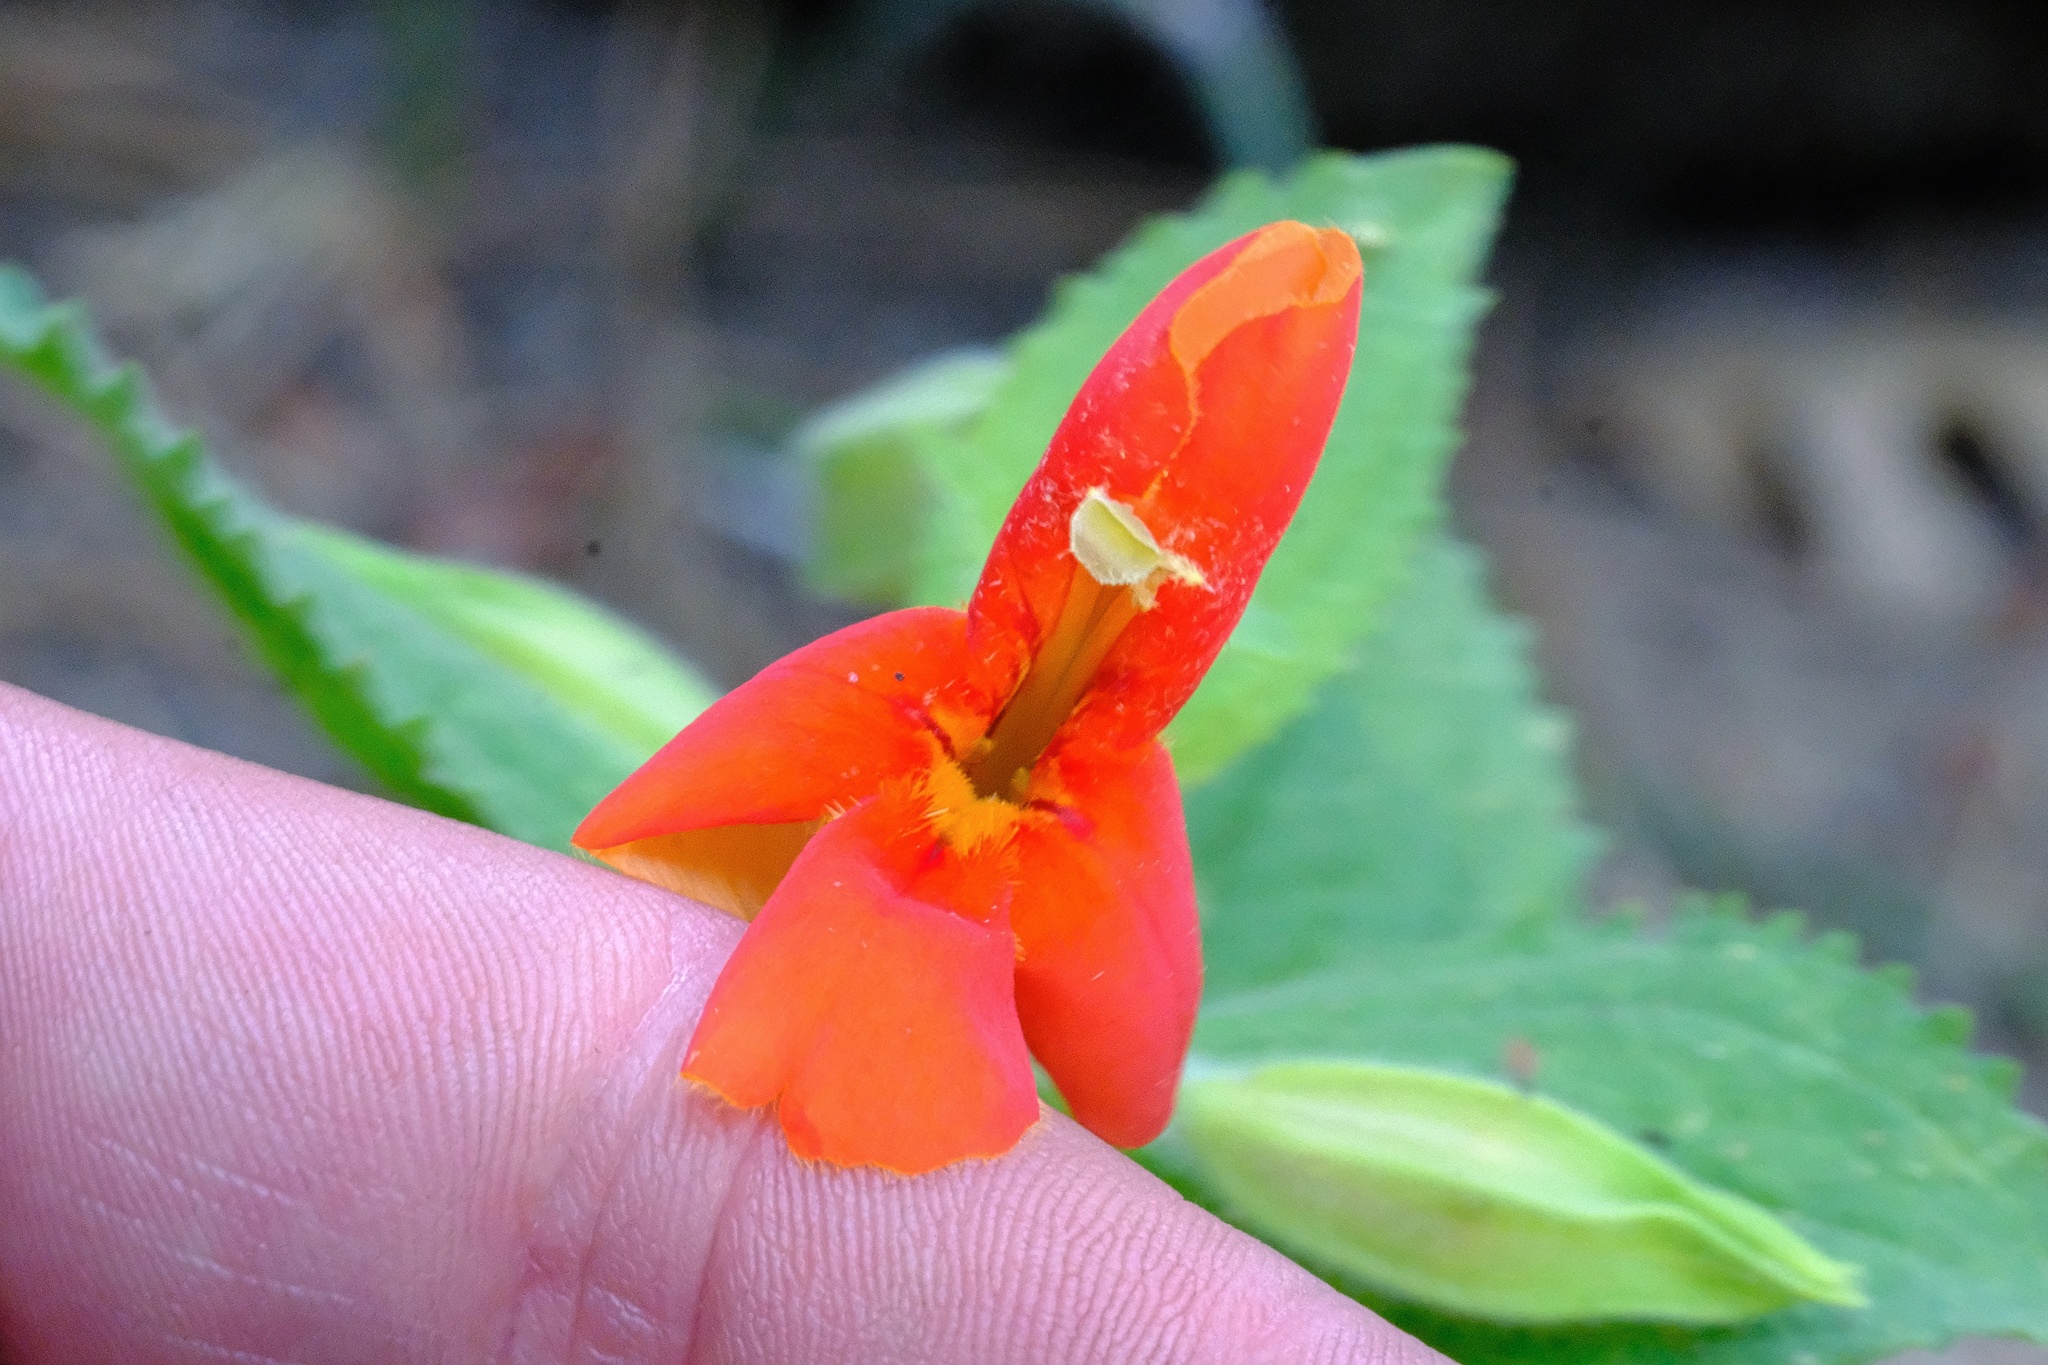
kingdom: Plantae
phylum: Tracheophyta
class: Magnoliopsida
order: Lamiales
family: Phrymaceae
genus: Erythranthe
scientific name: Erythranthe cardinalis
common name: Scarlet monkey-flower
